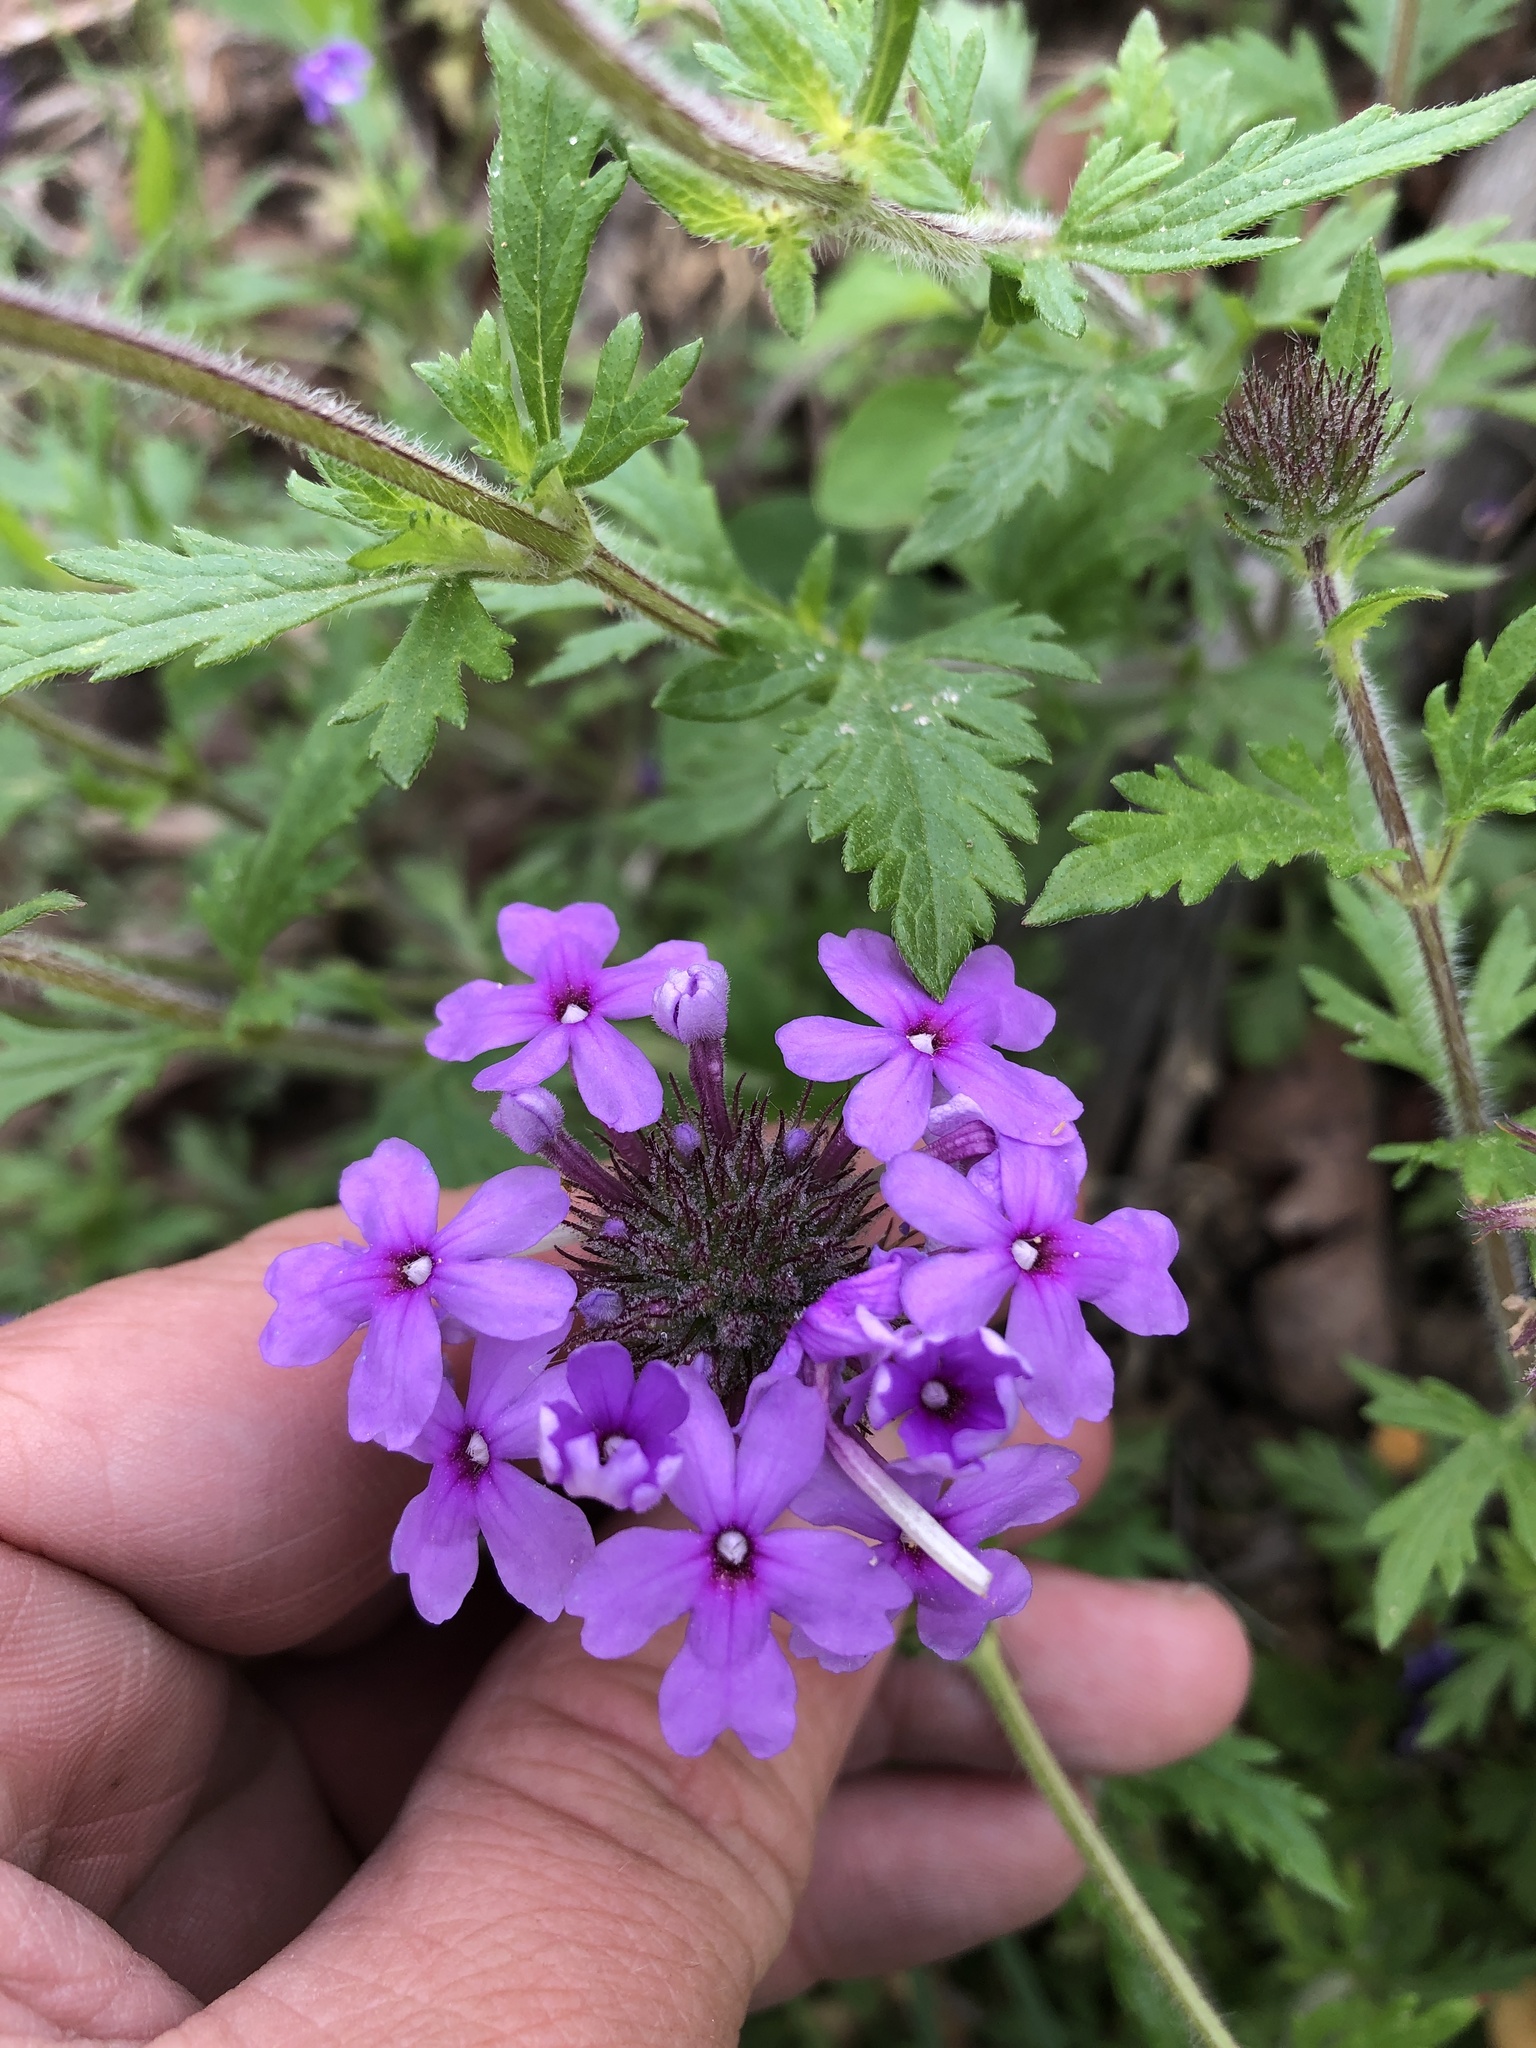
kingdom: Plantae
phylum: Tracheophyta
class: Magnoliopsida
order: Lamiales
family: Verbenaceae
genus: Verbena
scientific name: Verbena canadensis
